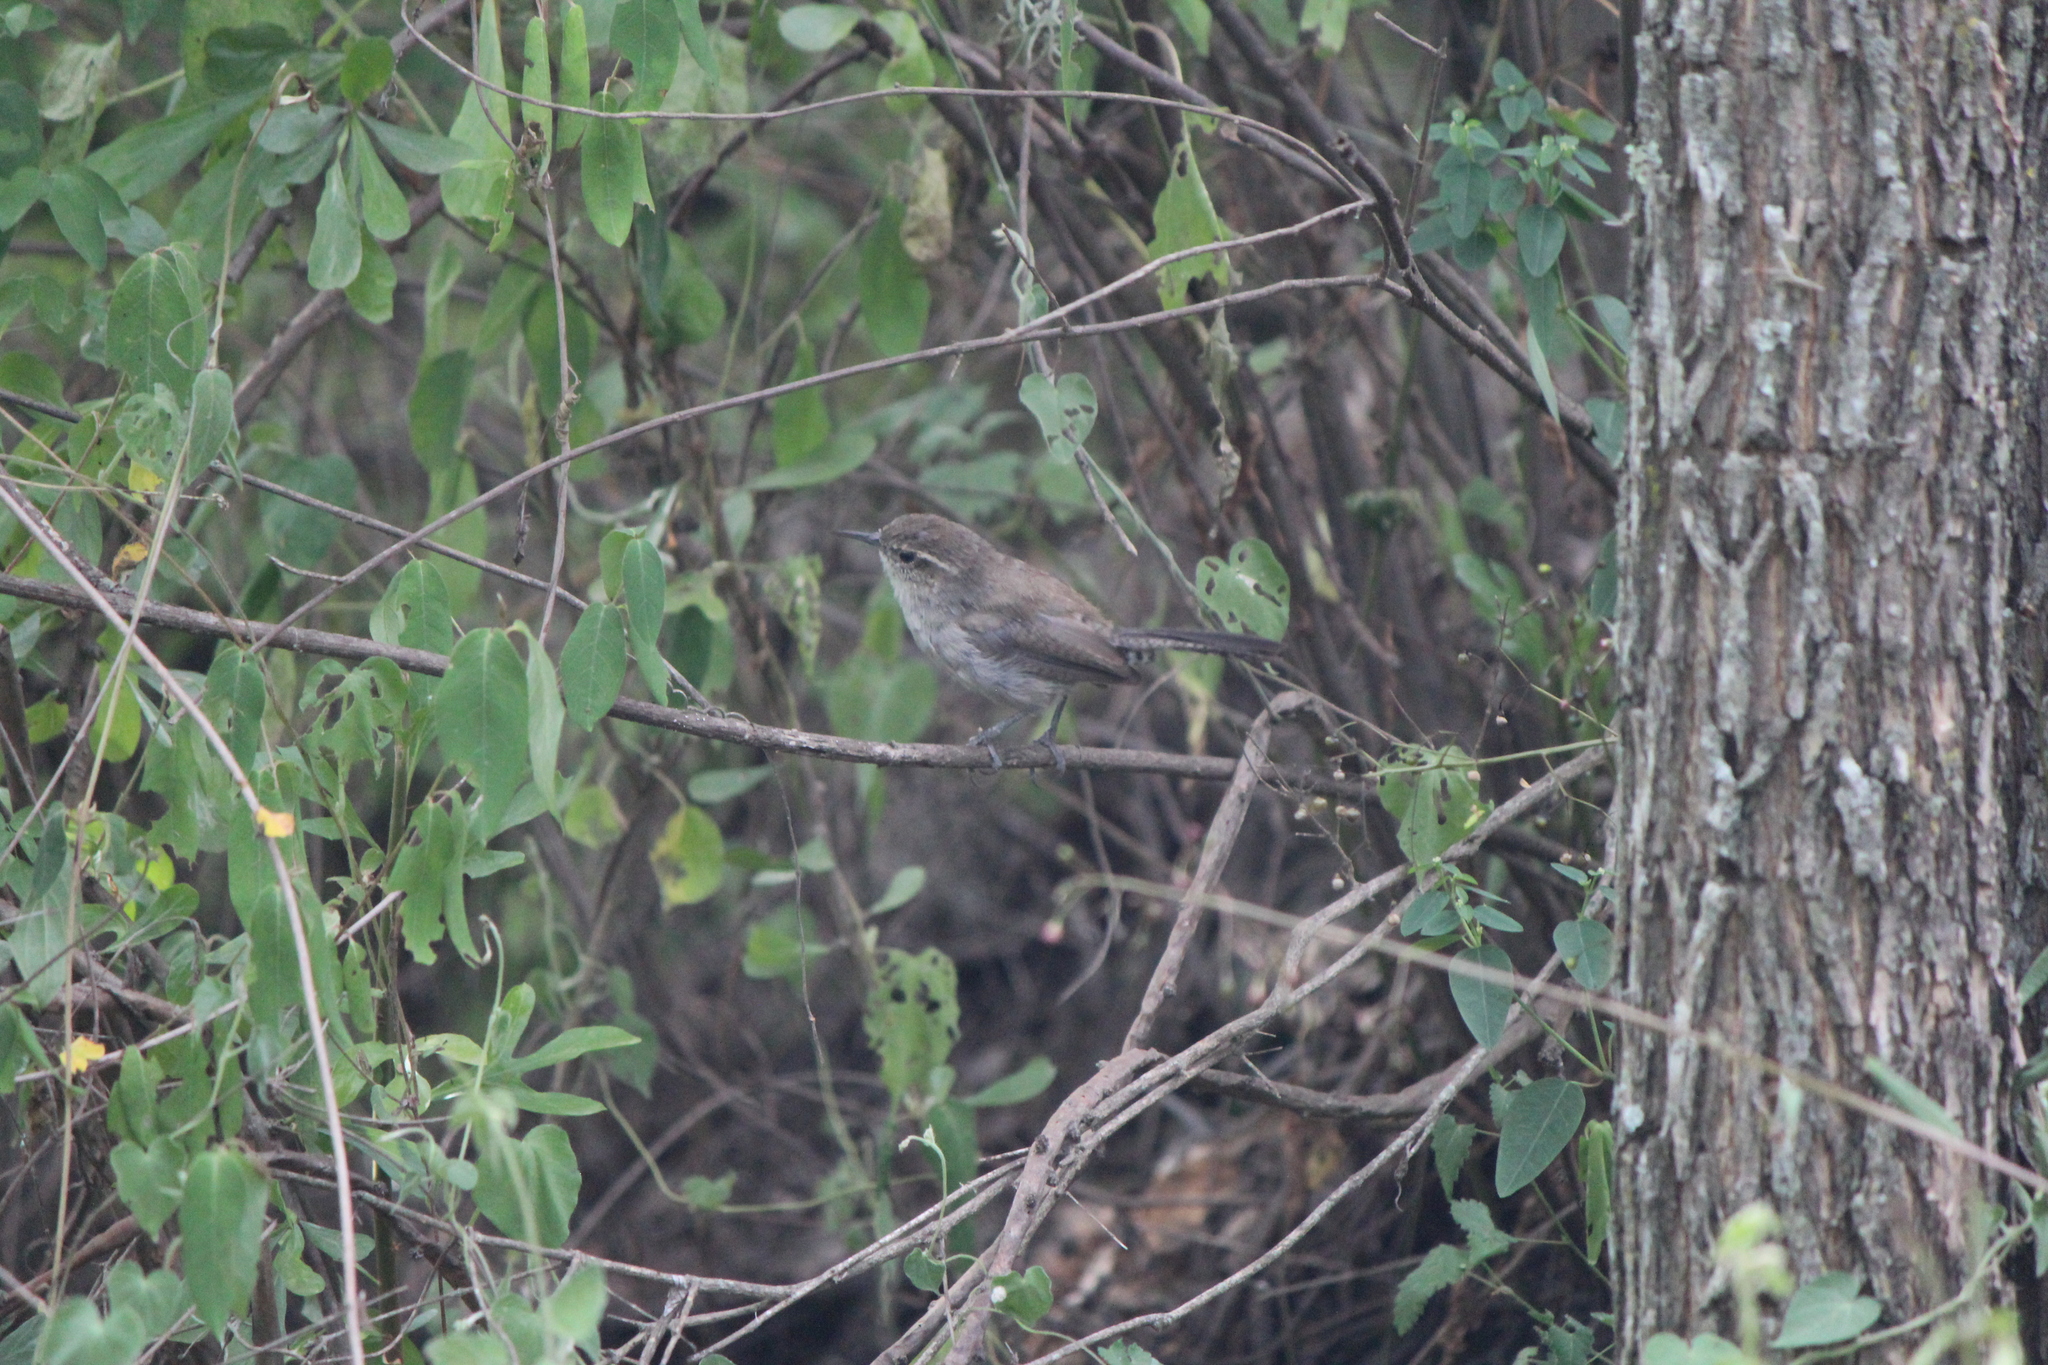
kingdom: Animalia
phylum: Chordata
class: Aves
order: Passeriformes
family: Troglodytidae
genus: Thryomanes
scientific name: Thryomanes bewickii
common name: Bewick's wren
